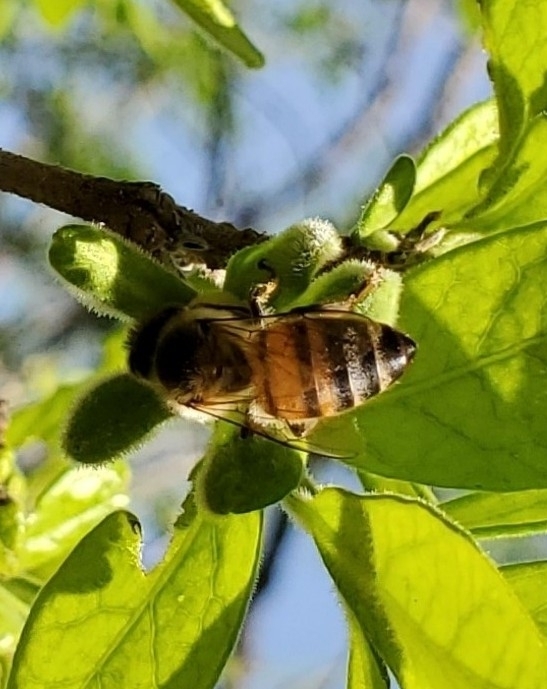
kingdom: Animalia
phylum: Arthropoda
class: Insecta
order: Hymenoptera
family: Apidae
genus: Apis
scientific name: Apis mellifera
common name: Honey bee
